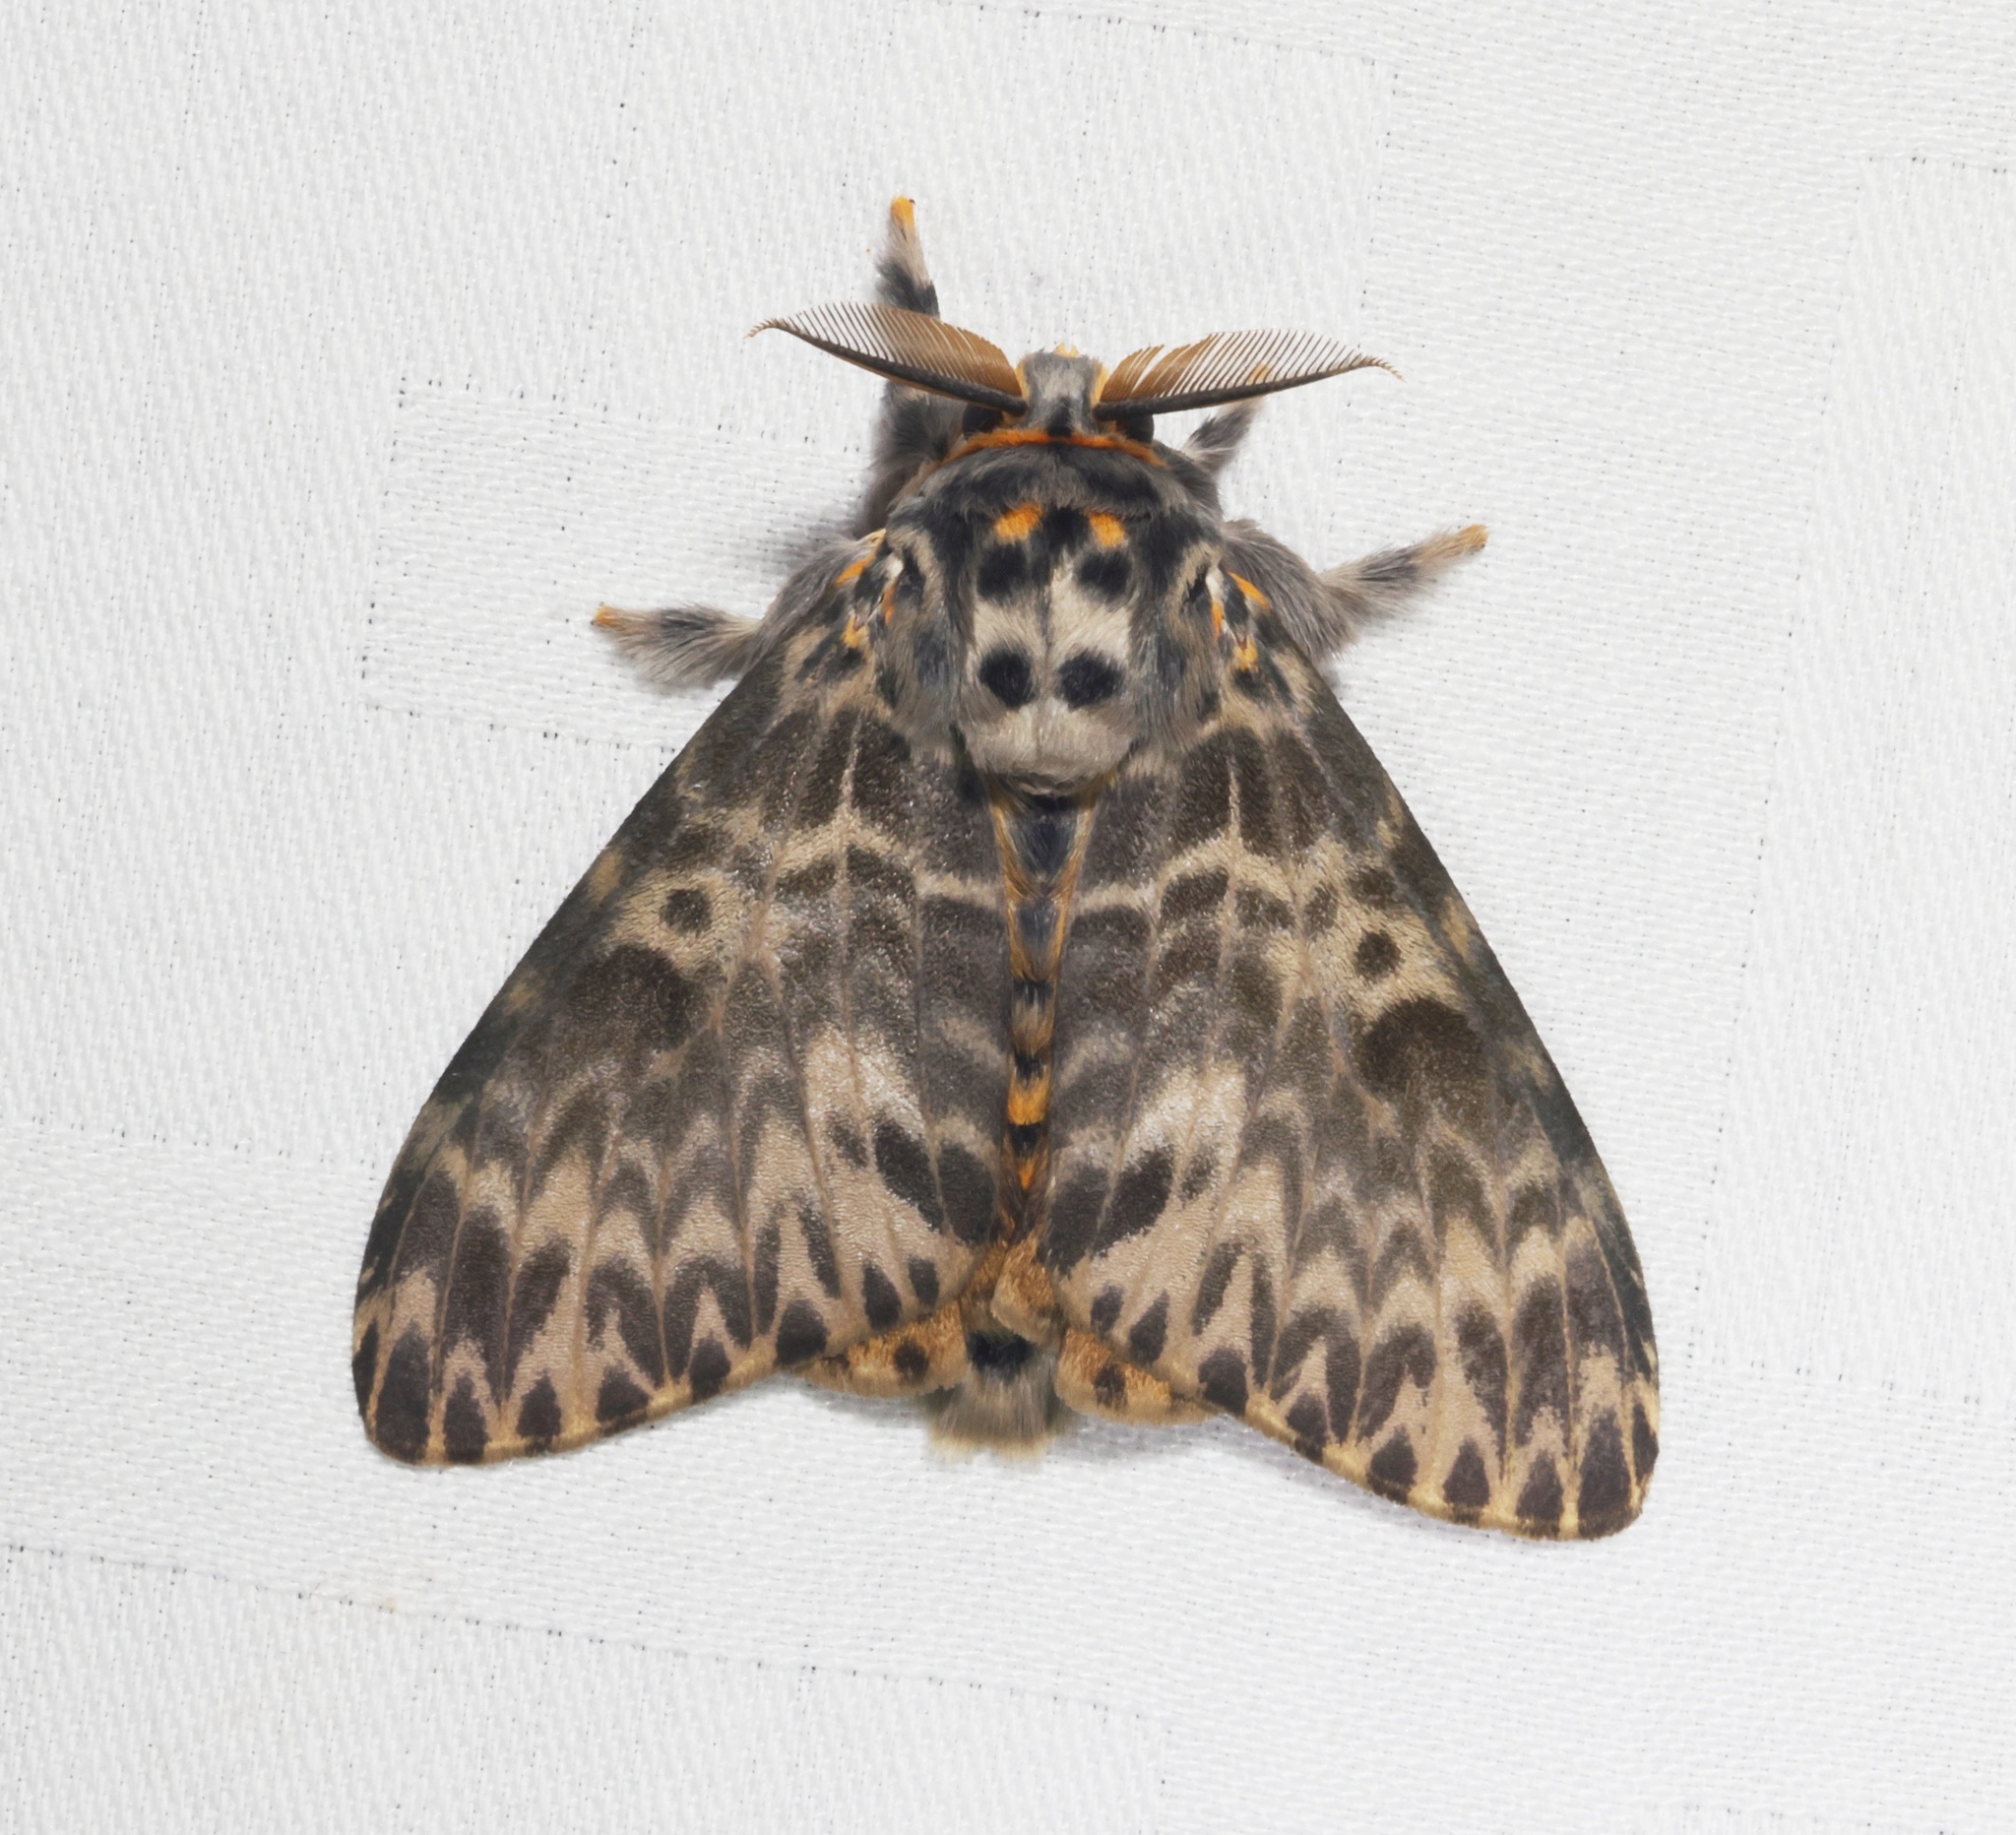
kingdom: Animalia
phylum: Arthropoda
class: Insecta
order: Lepidoptera
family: Erebidae
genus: Lymantria
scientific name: Lymantria mathura
